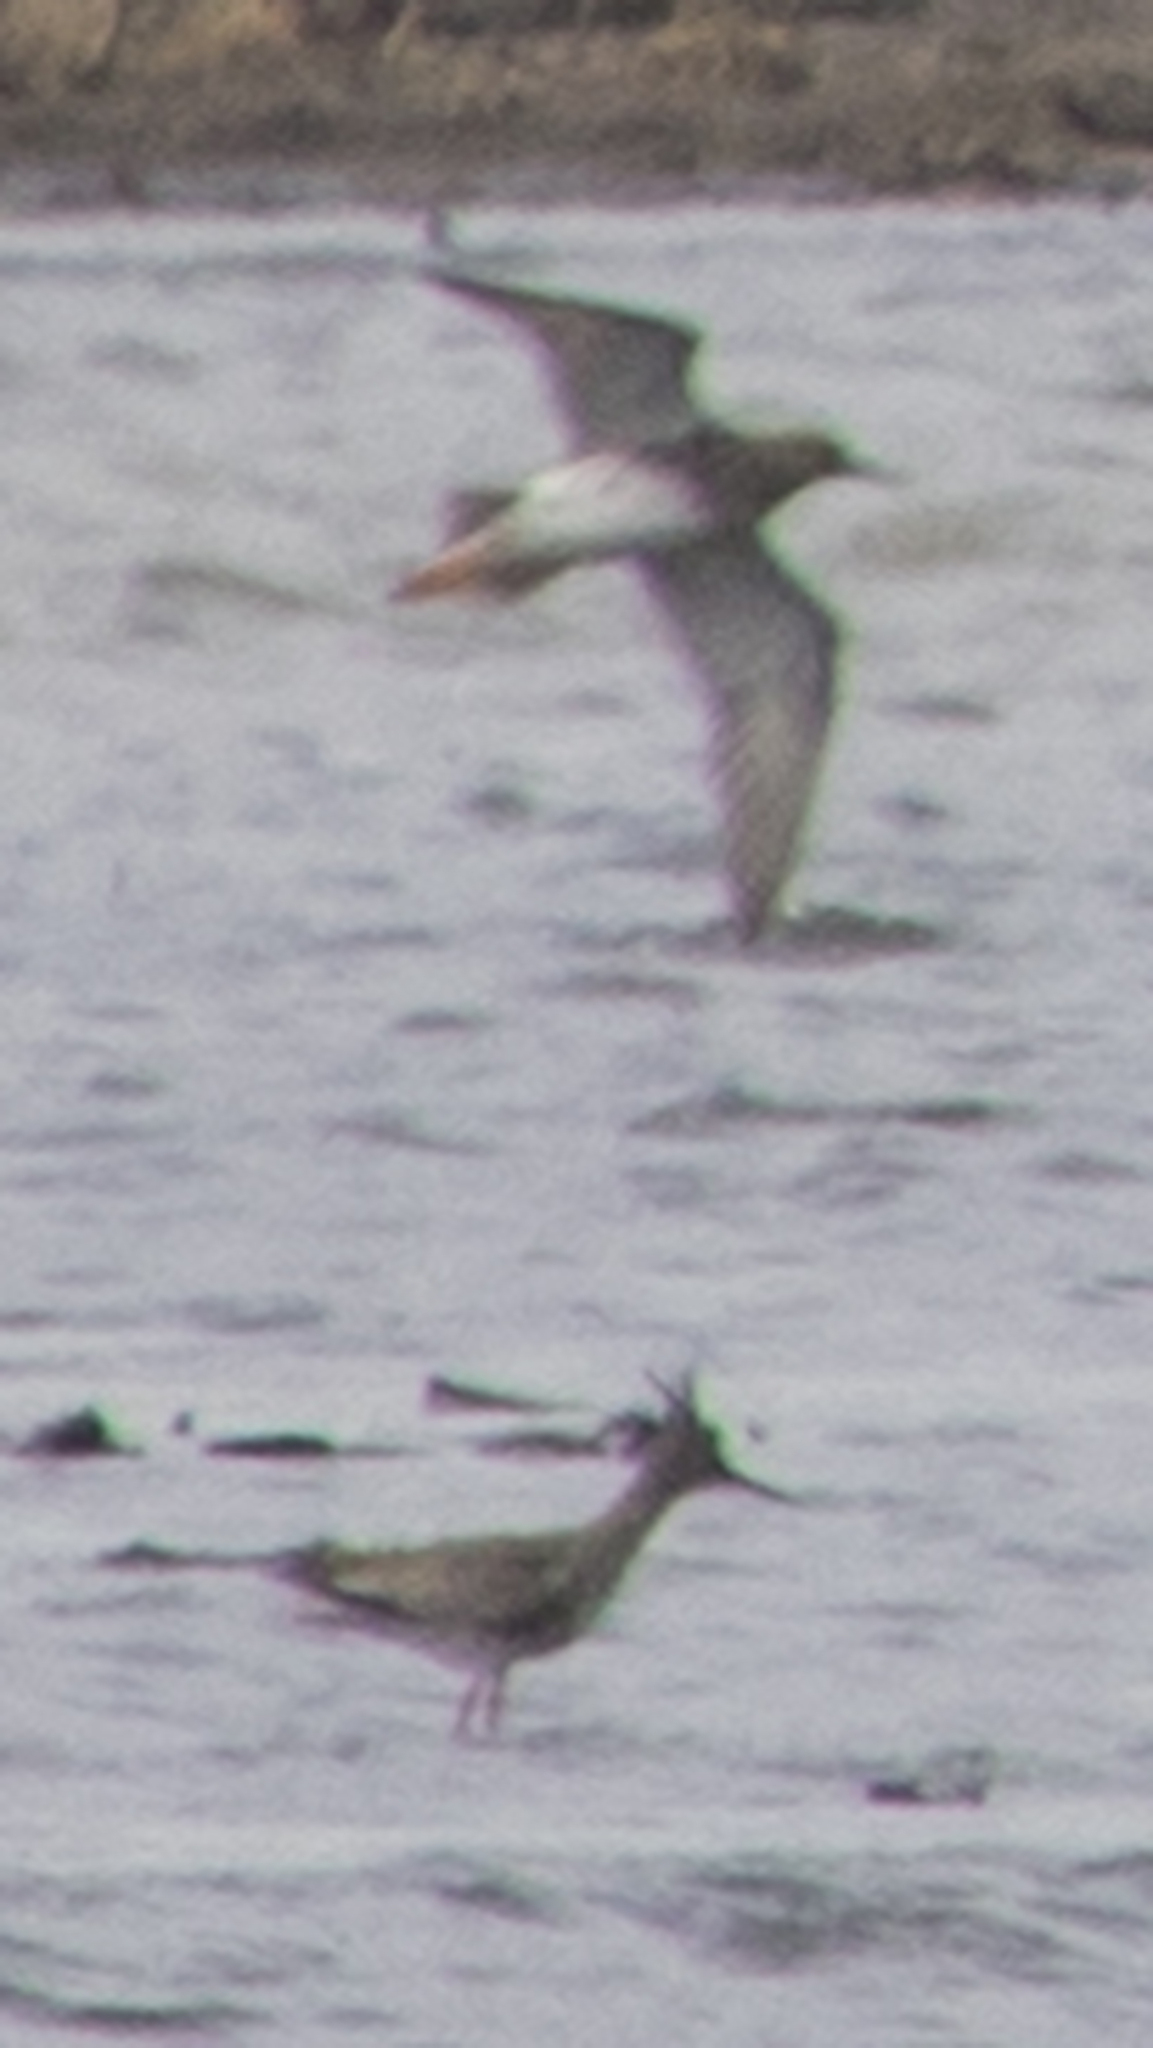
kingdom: Animalia
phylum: Chordata
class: Aves
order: Charadriiformes
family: Scolopacidae
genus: Tringa
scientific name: Tringa totanus
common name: Common redshank
